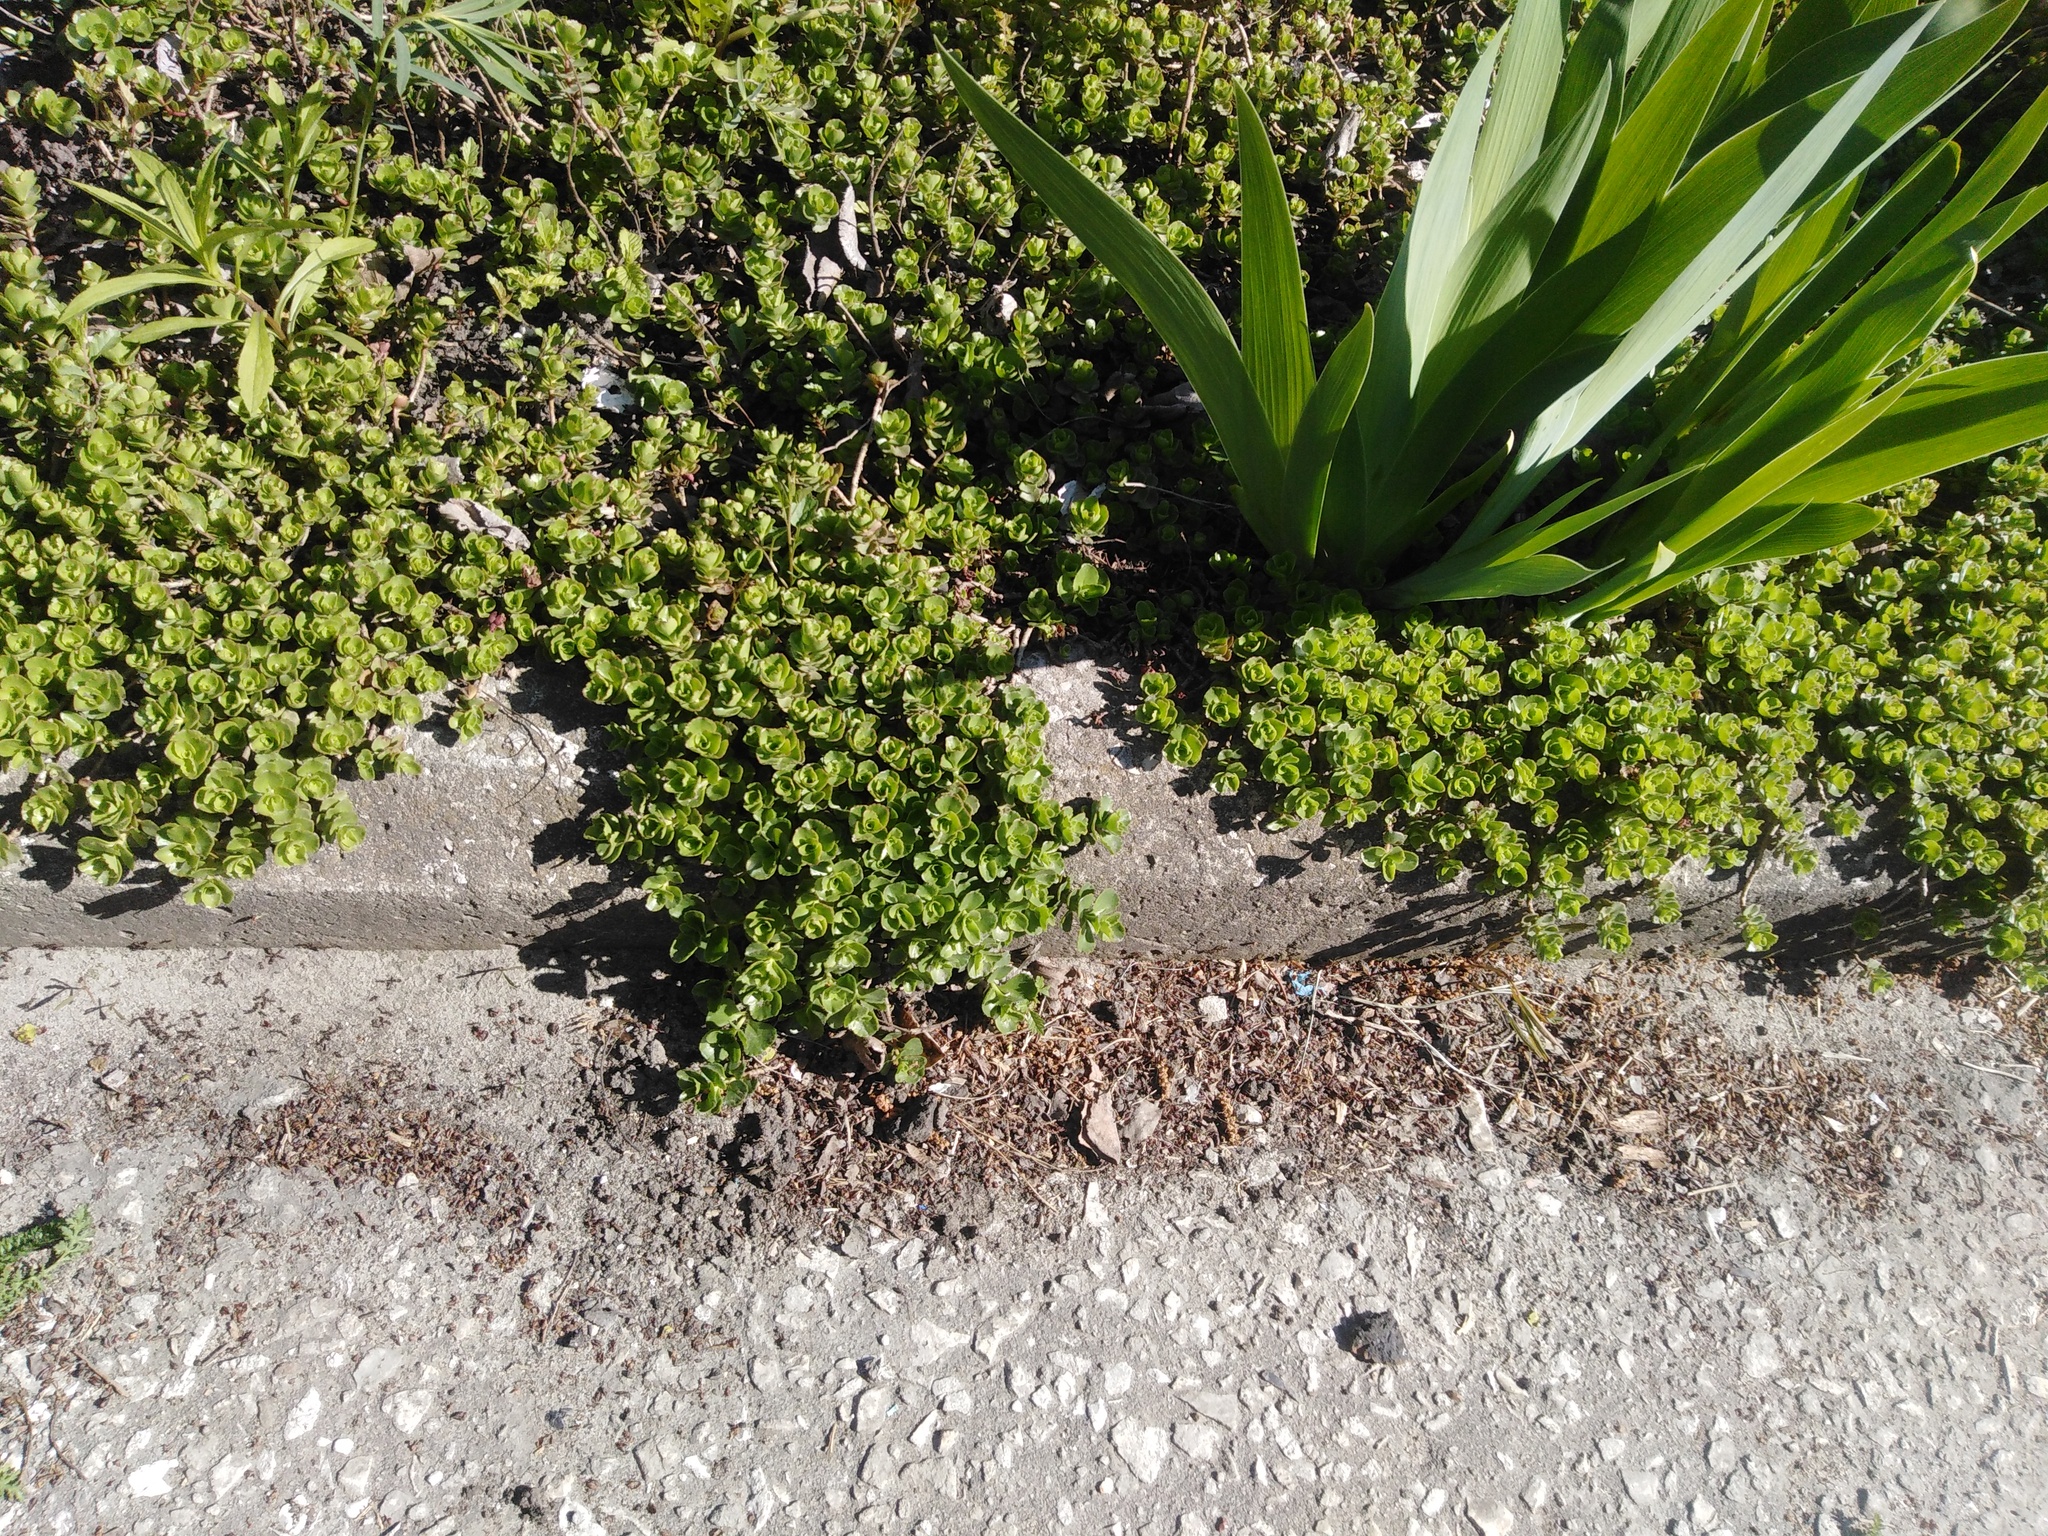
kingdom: Plantae
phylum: Tracheophyta
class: Magnoliopsida
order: Saxifragales
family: Crassulaceae
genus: Phedimus
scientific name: Phedimus spurius
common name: Caucasian stonecrop
